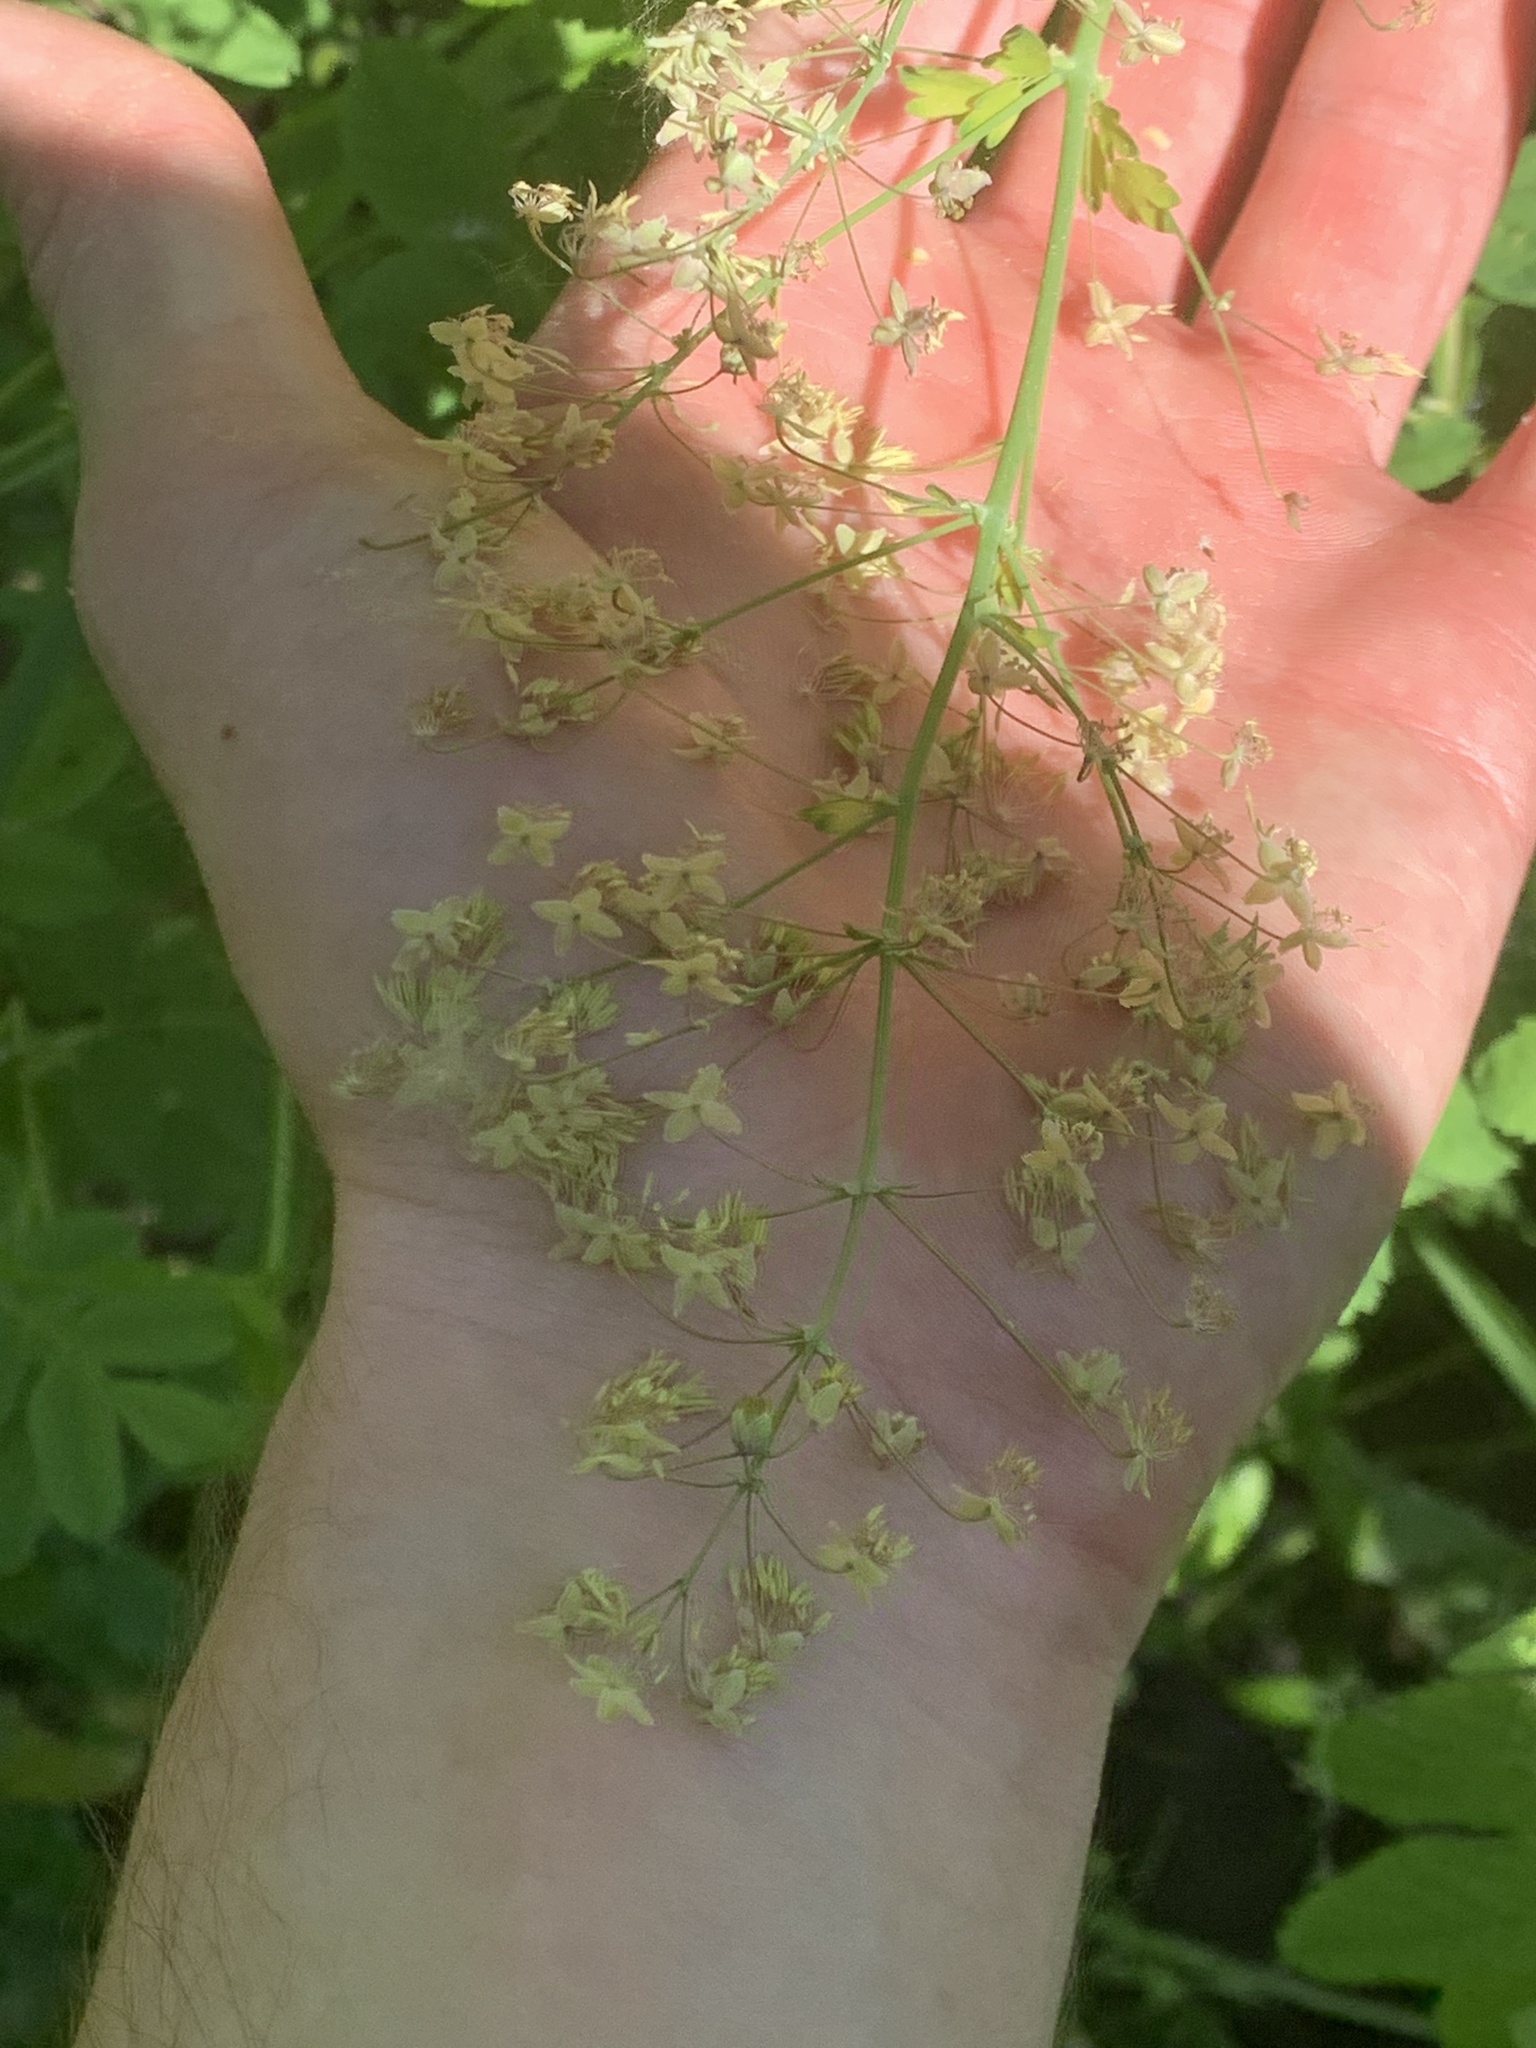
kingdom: Plantae
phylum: Tracheophyta
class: Magnoliopsida
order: Ranunculales
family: Ranunculaceae
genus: Thalictrum
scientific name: Thalictrum venulosum
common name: Early meadow-rue
